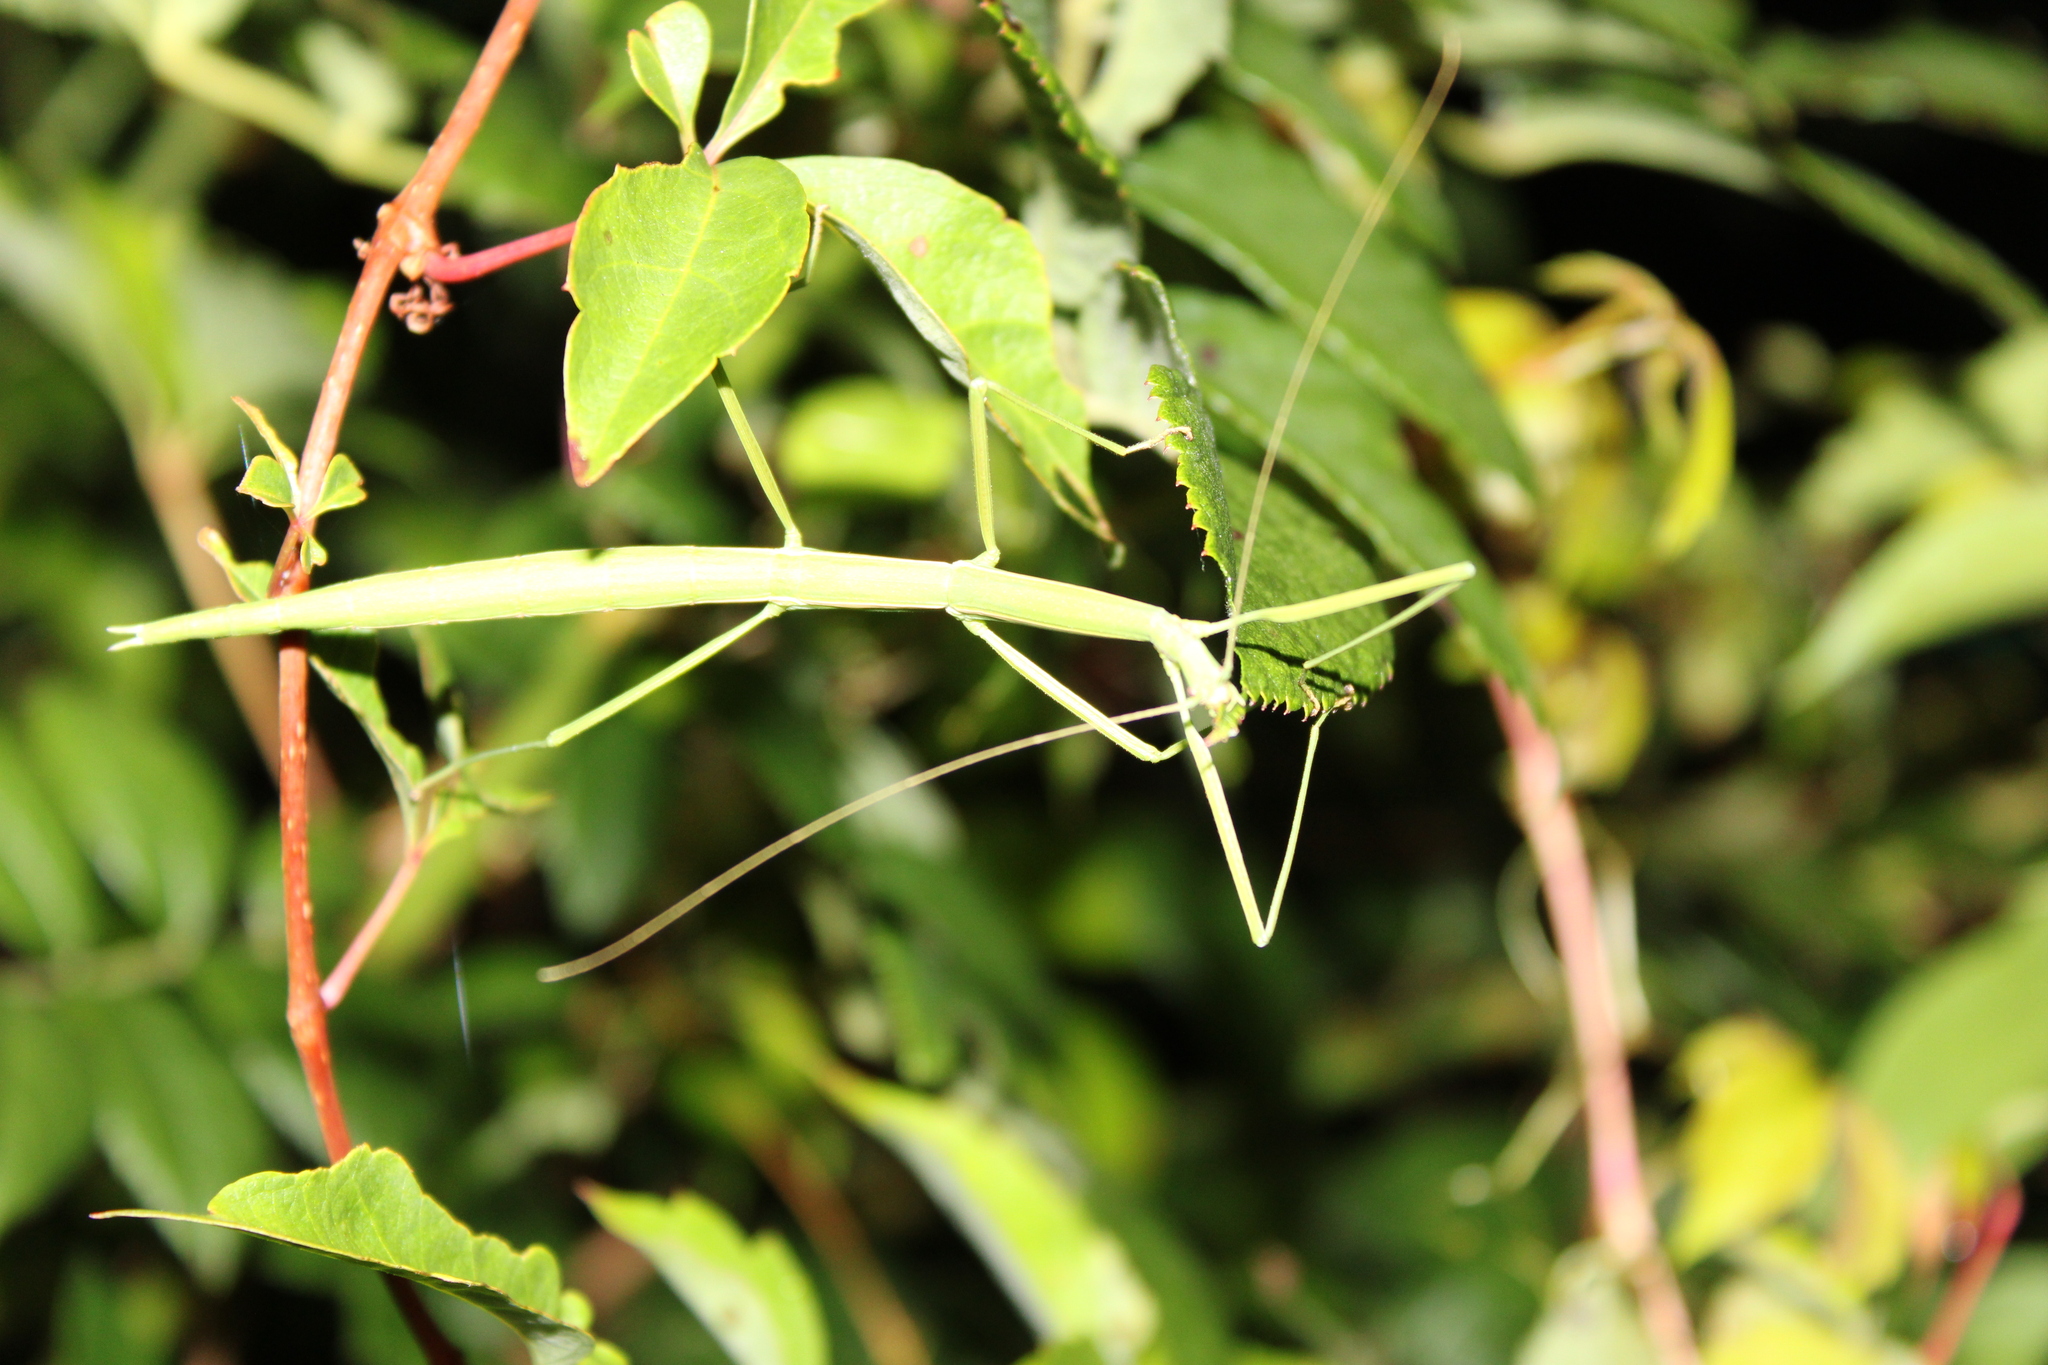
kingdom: Animalia
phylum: Arthropoda
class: Insecta
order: Phasmida
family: Diapheromeridae
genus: Manomera
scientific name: Manomera blatchleyi
